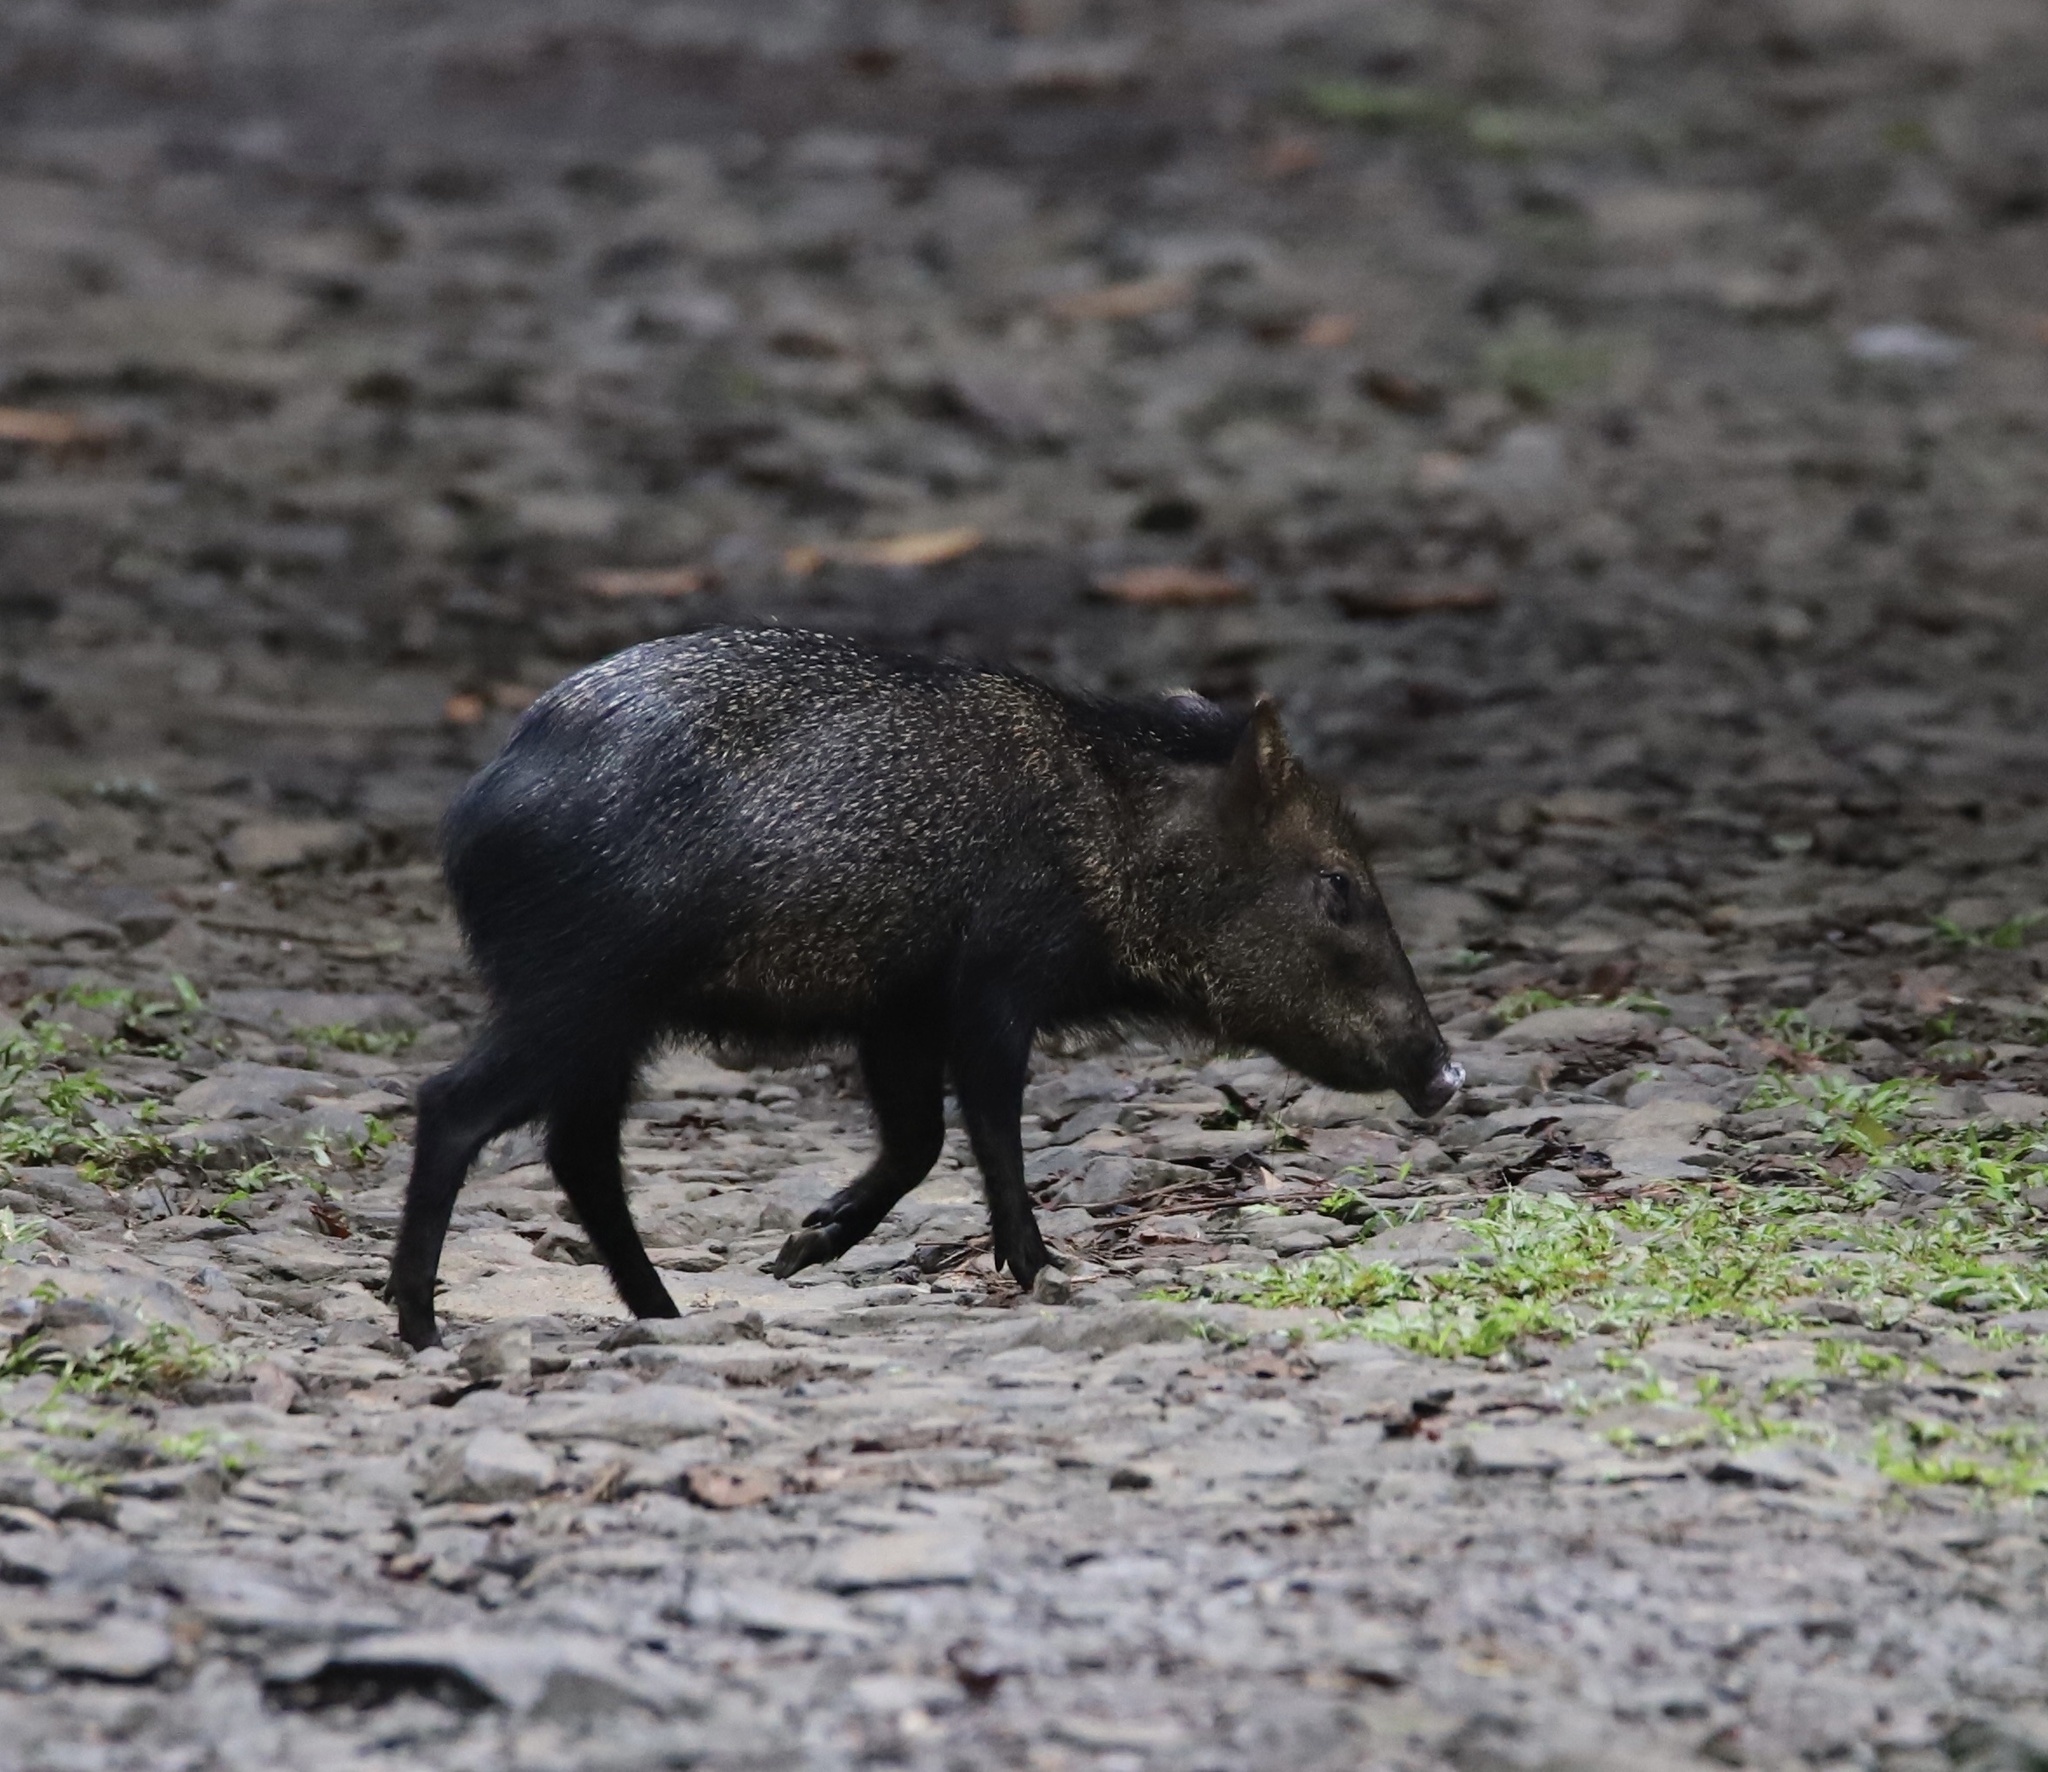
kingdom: Animalia
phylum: Chordata
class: Mammalia
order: Artiodactyla
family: Tayassuidae
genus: Pecari
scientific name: Pecari tajacu
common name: Collared peccary
